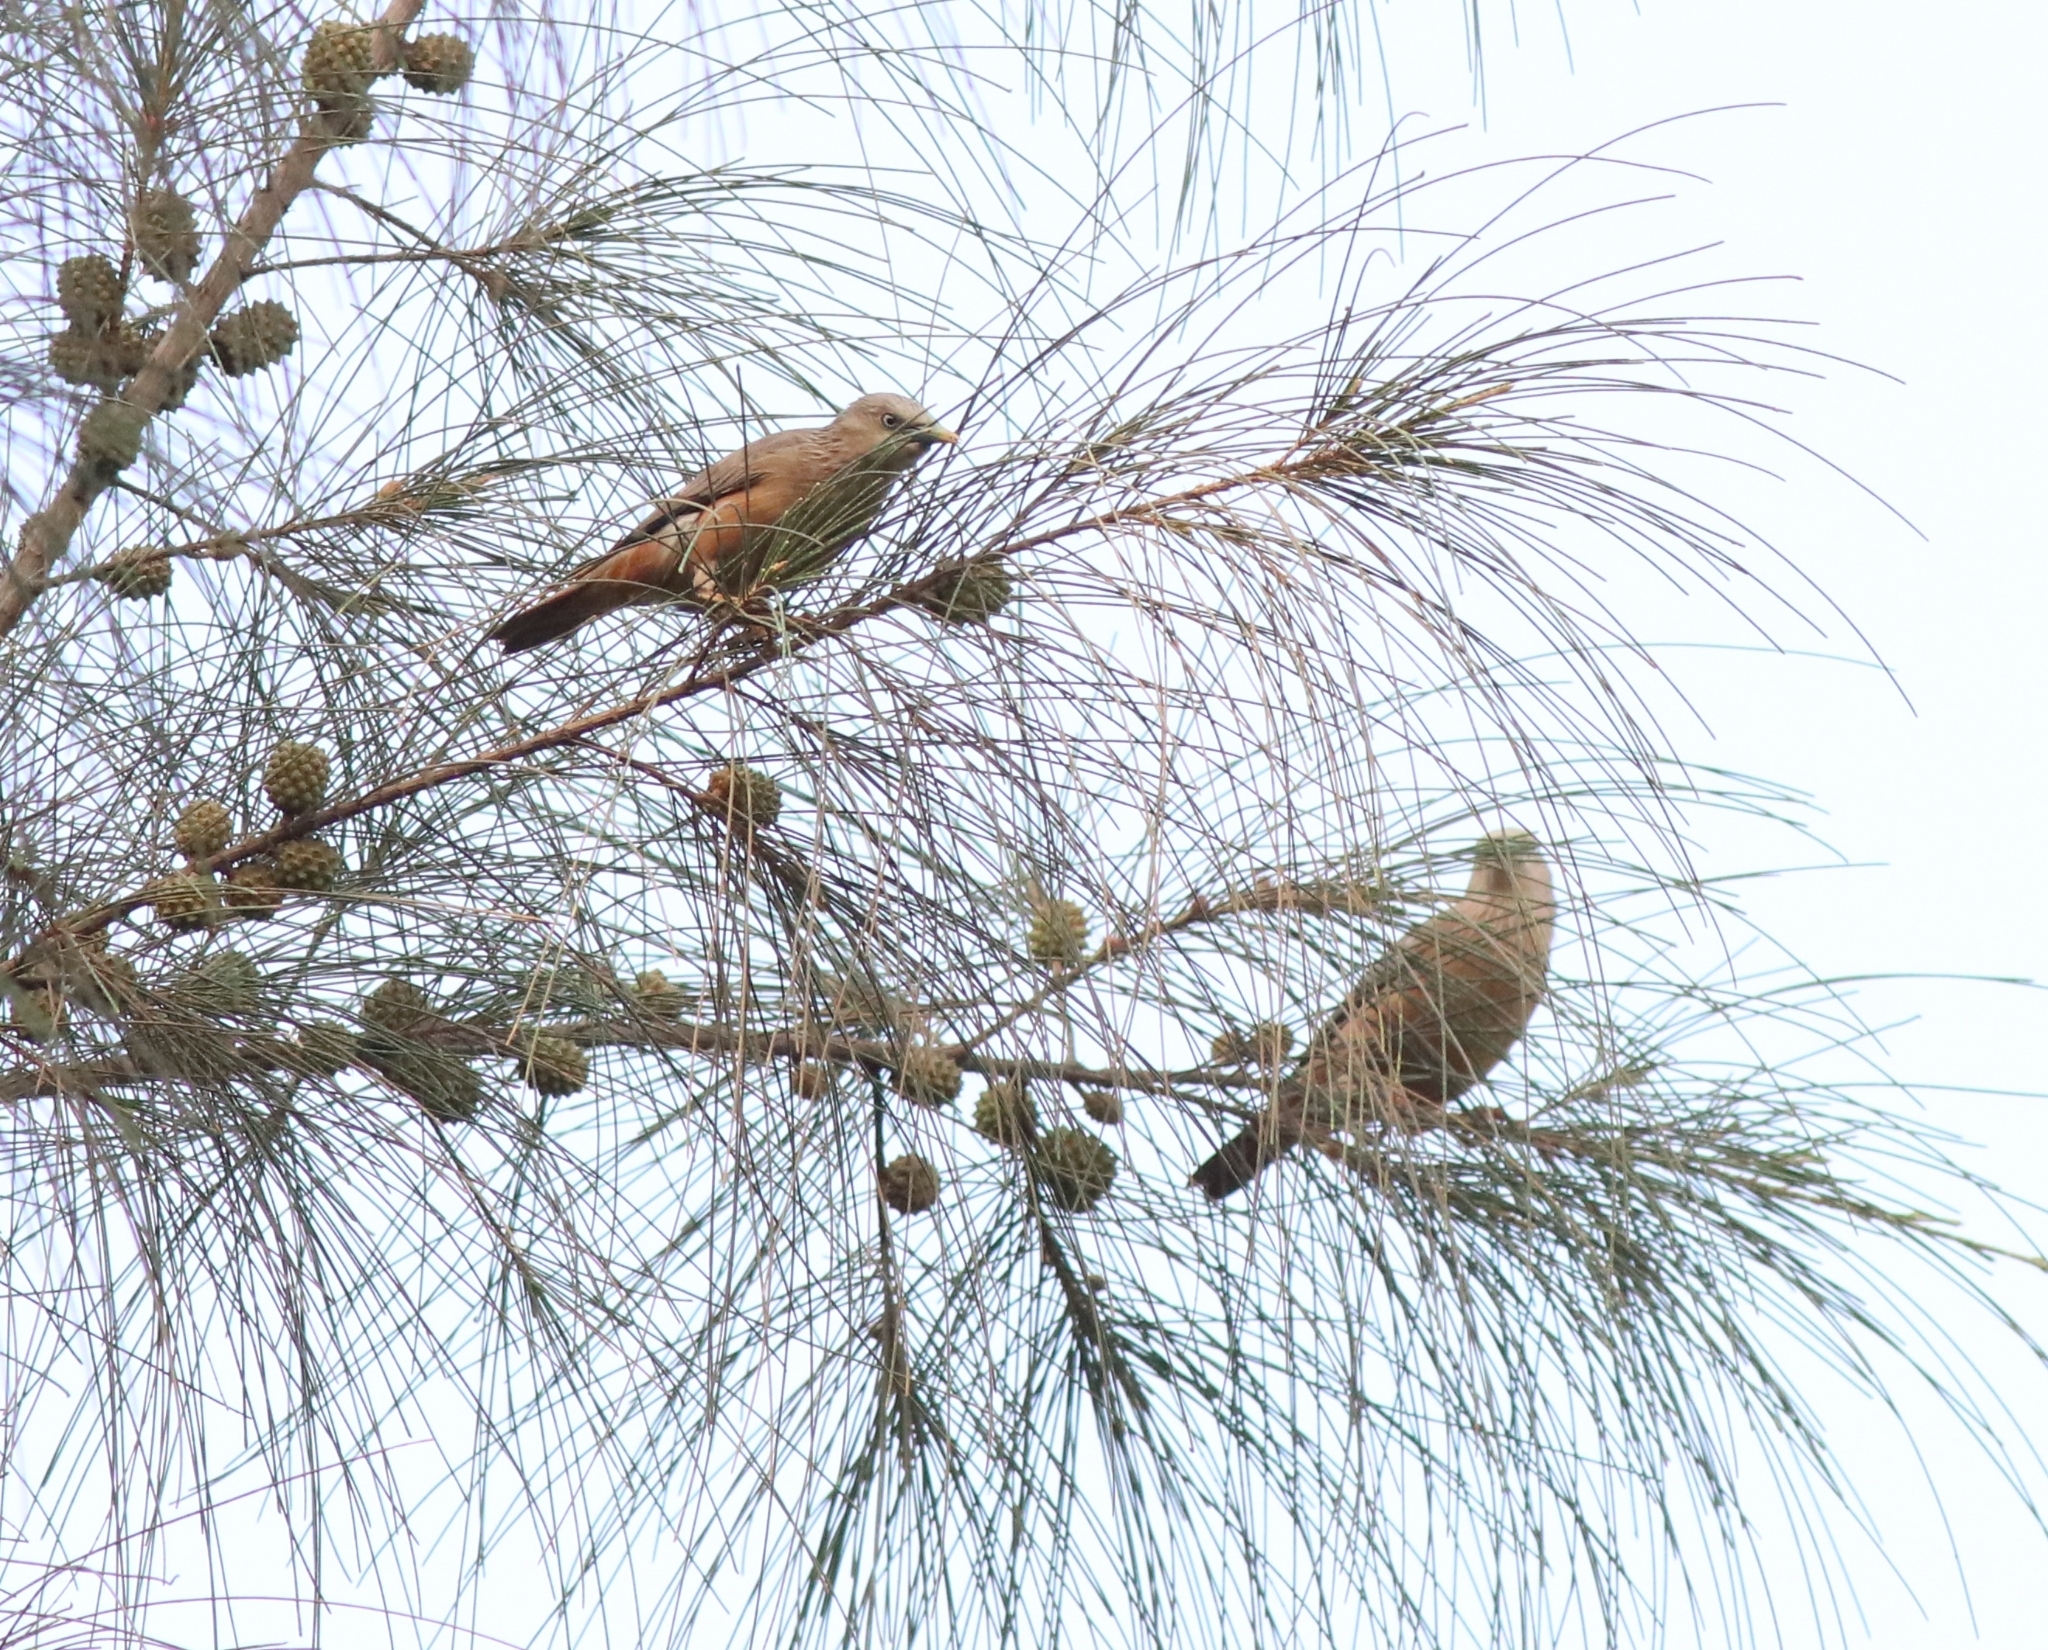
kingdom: Animalia
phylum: Chordata
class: Aves
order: Passeriformes
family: Sturnidae
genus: Sturnia
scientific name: Sturnia malabarica
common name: Chestnut-tailed starling
